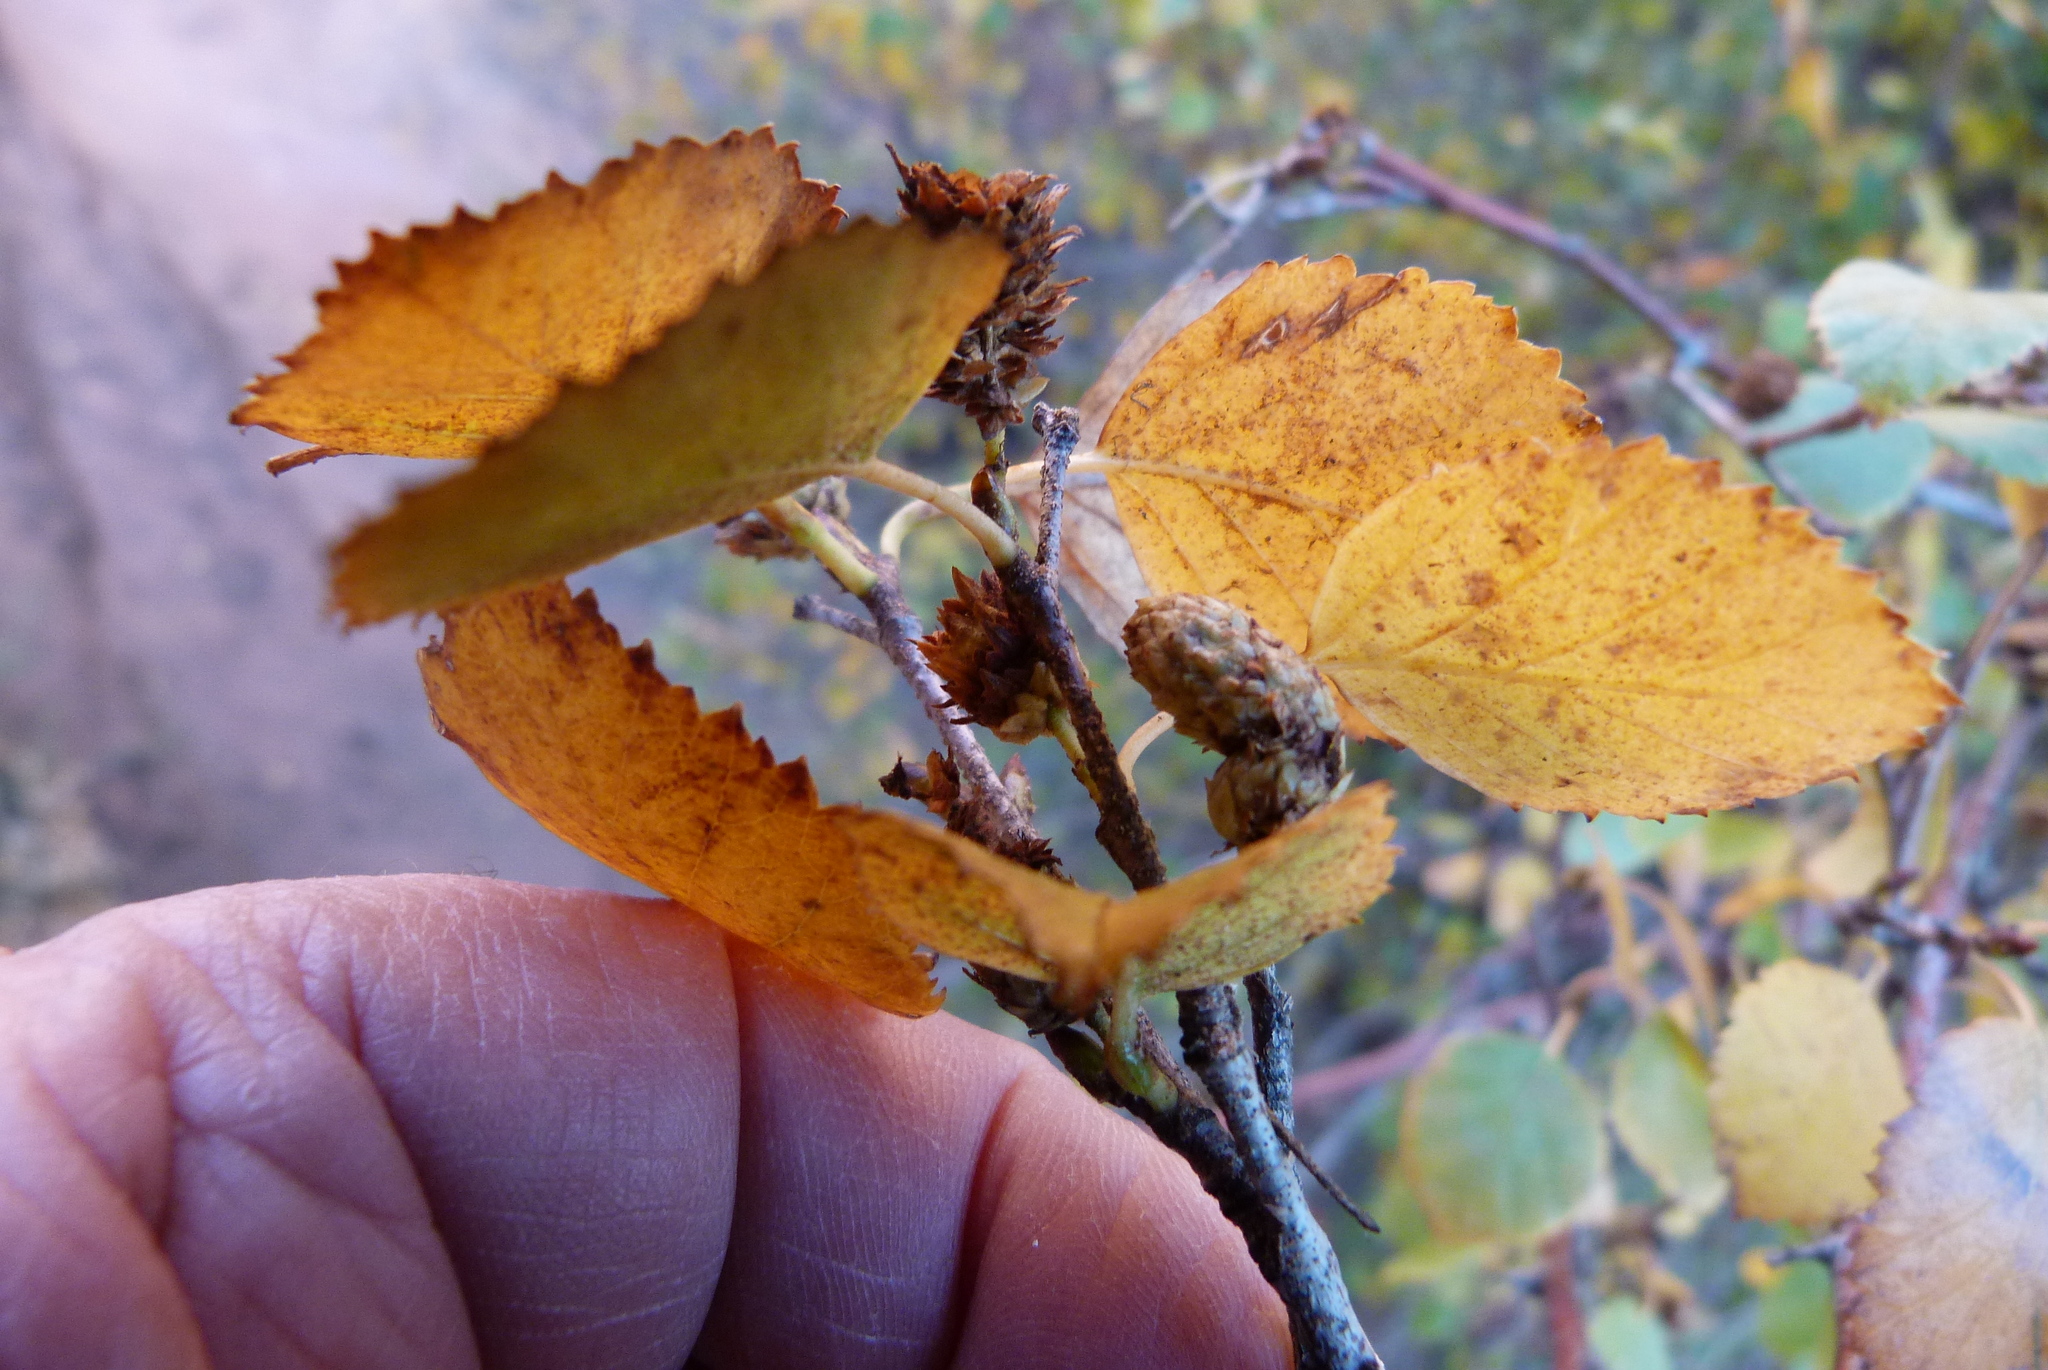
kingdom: Plantae
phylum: Tracheophyta
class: Magnoliopsida
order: Rosales
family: Rosaceae
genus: Amelanchier
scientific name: Amelanchier utahensis
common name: Utah serviceberry
